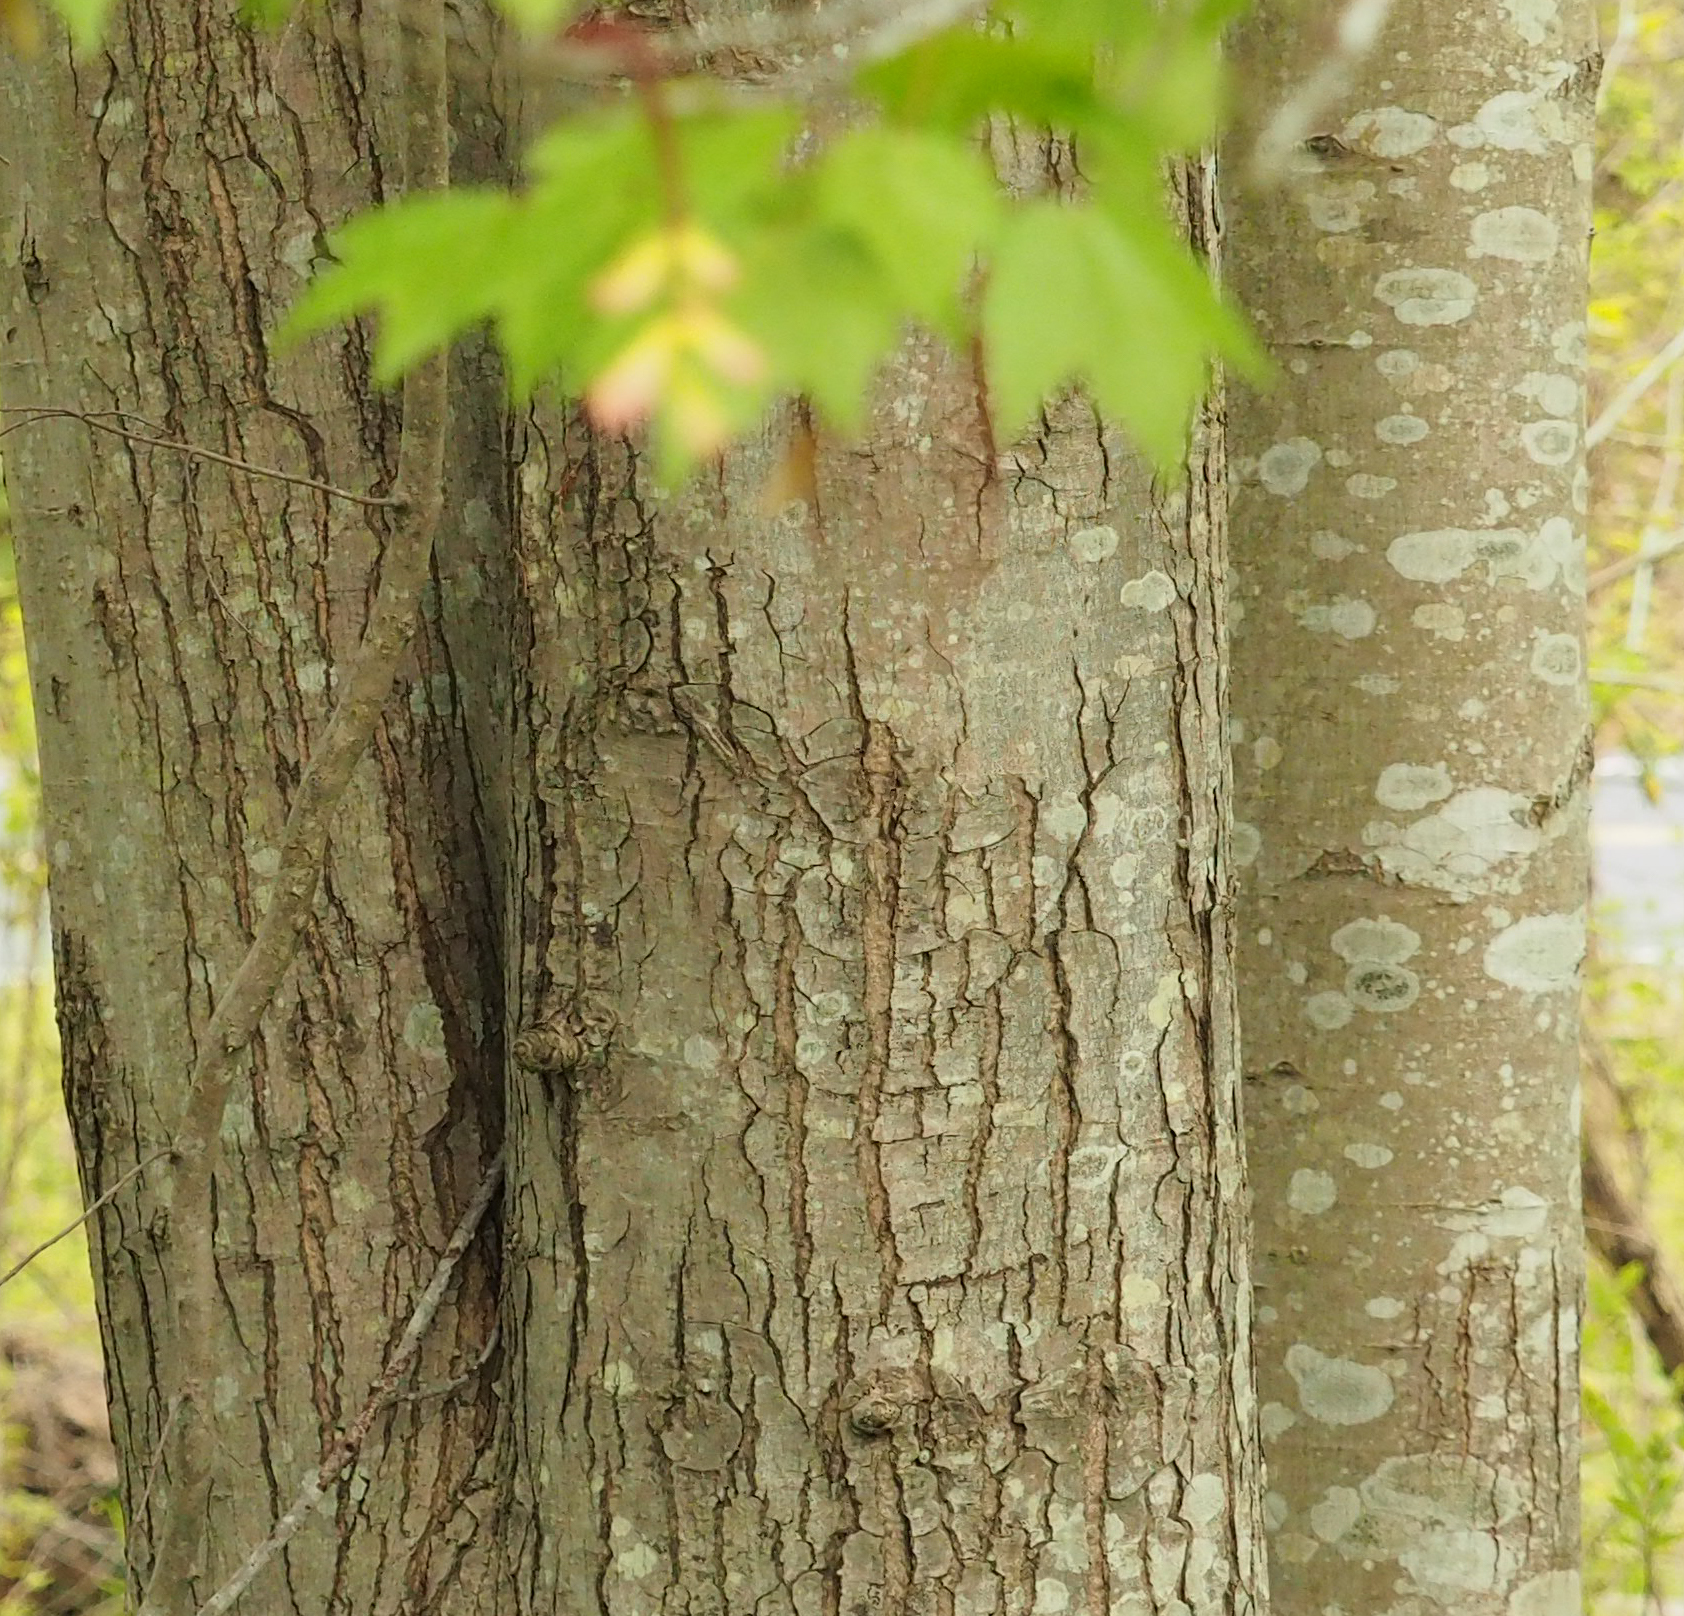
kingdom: Plantae
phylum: Tracheophyta
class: Magnoliopsida
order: Sapindales
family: Sapindaceae
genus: Acer
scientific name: Acer rubrum
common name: Red maple
